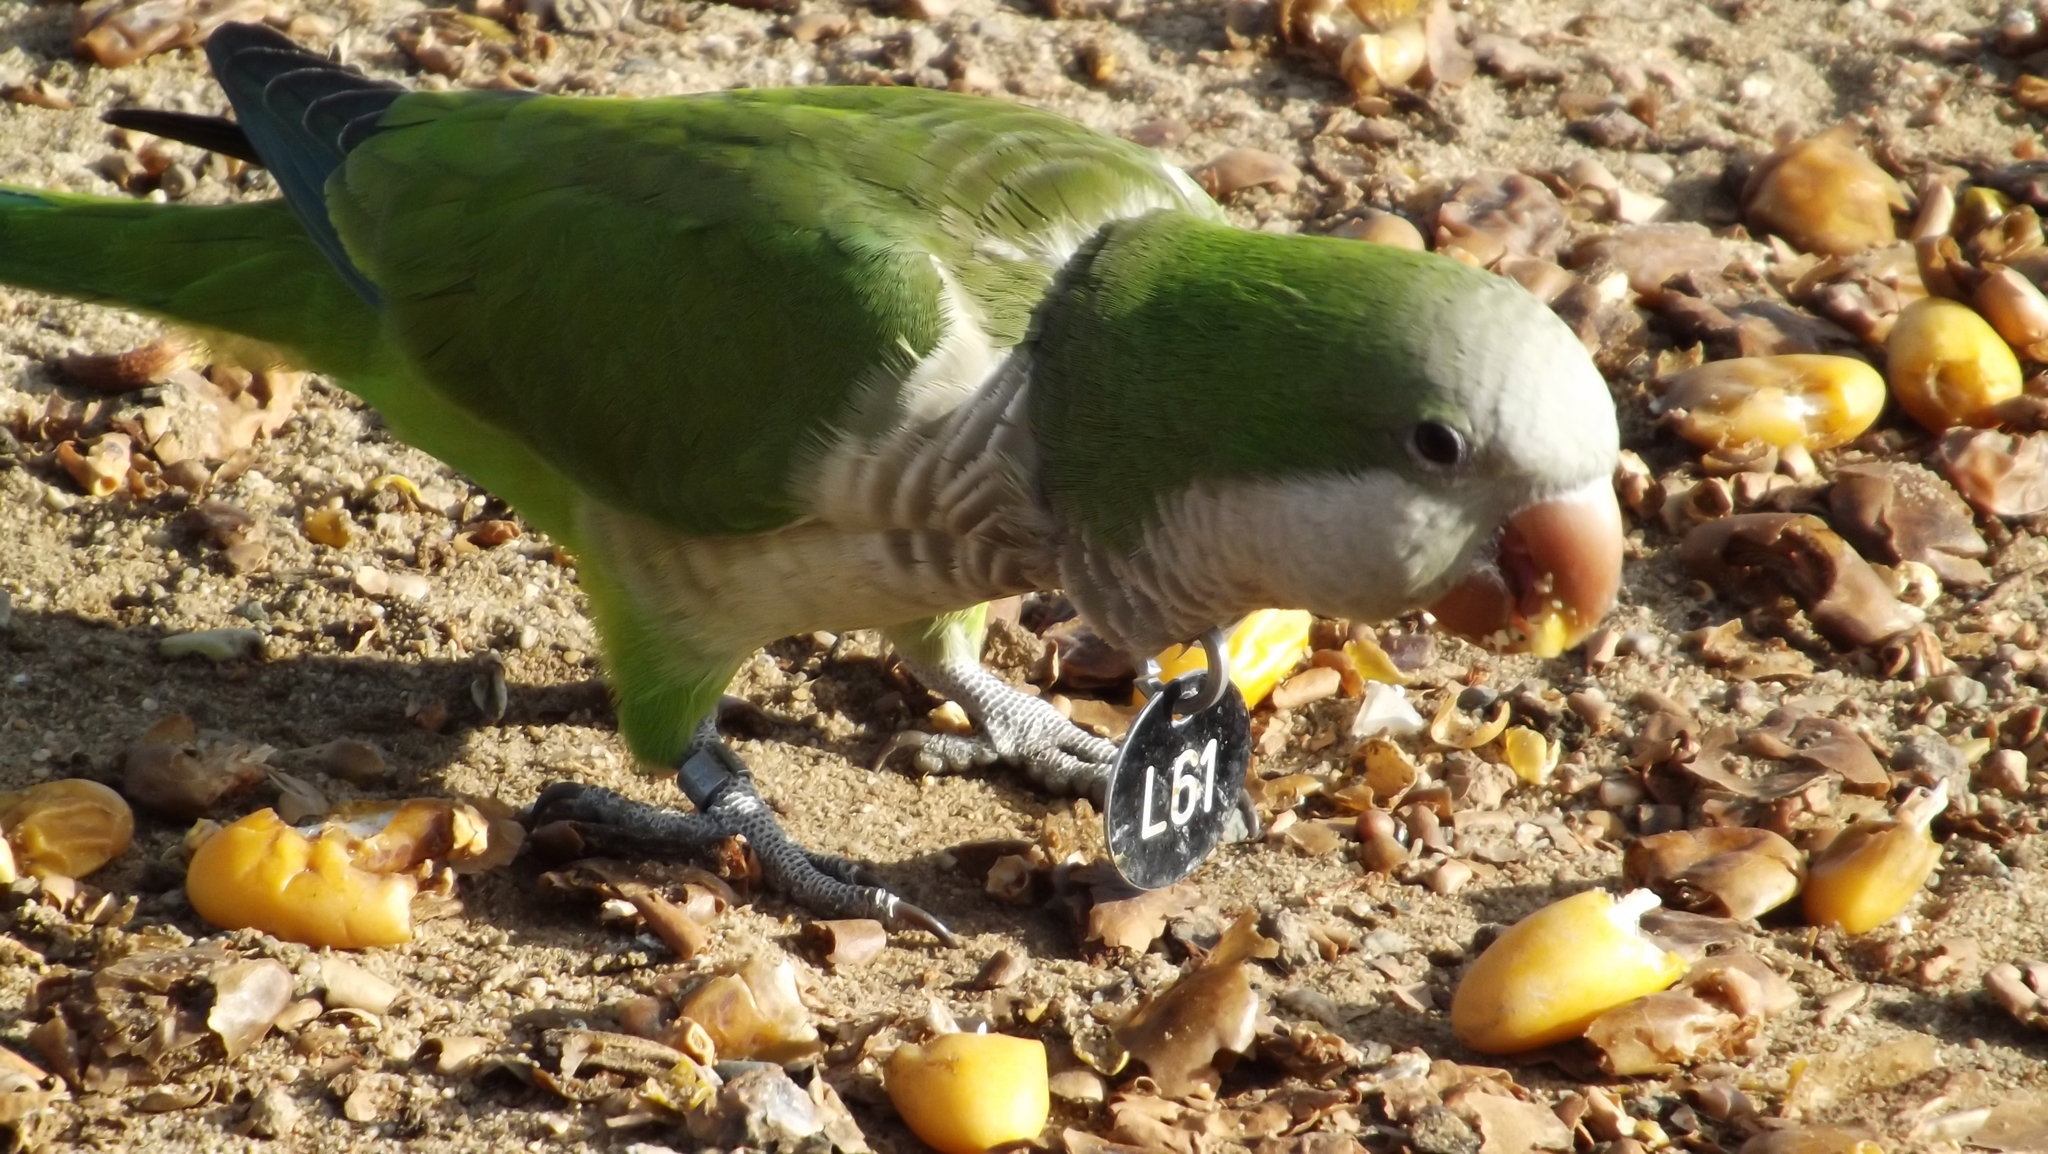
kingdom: Animalia
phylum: Chordata
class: Aves
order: Psittaciformes
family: Psittacidae
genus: Myiopsitta
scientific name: Myiopsitta monachus
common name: Monk parakeet
